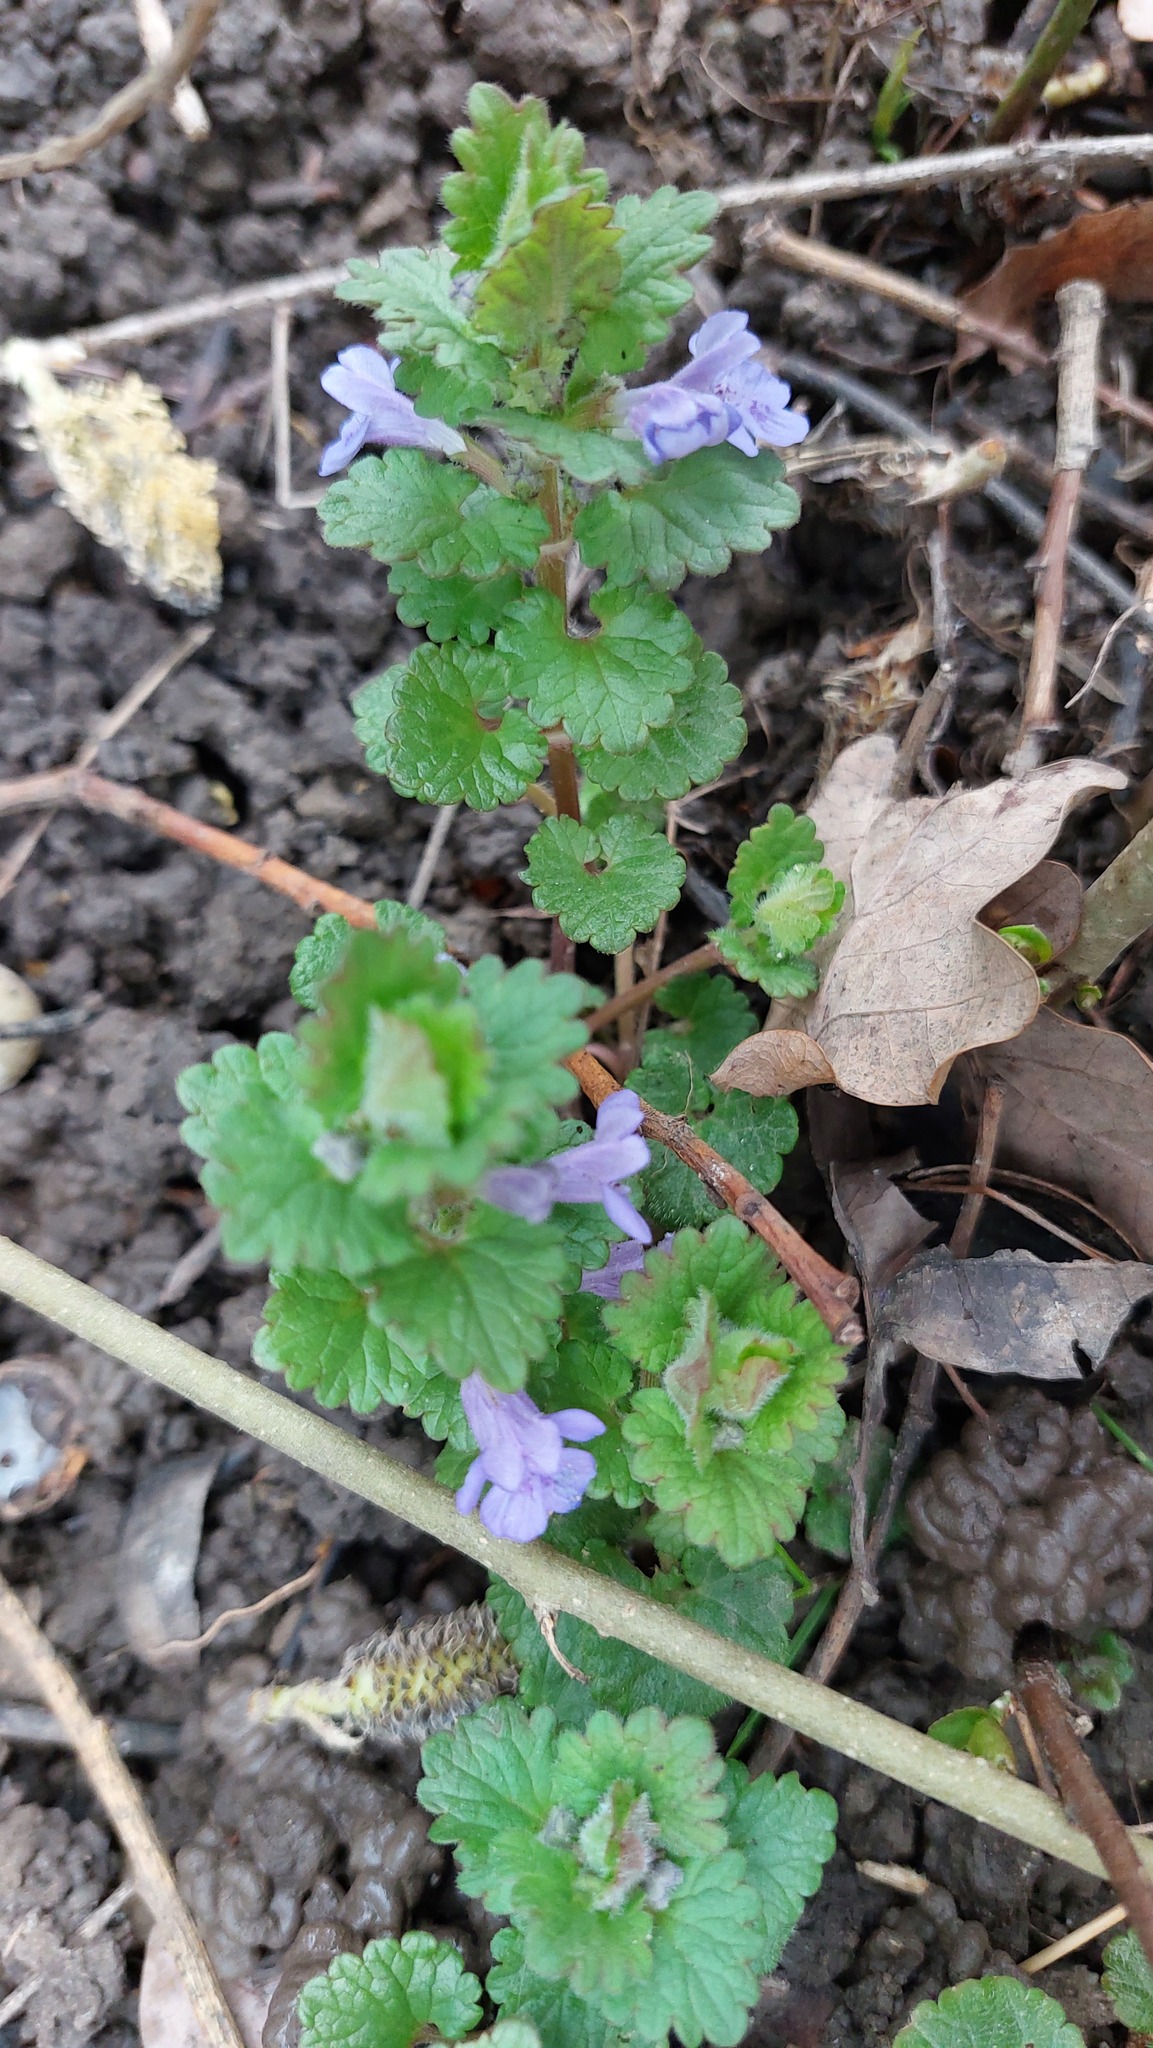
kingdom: Plantae
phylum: Tracheophyta
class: Magnoliopsida
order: Lamiales
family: Lamiaceae
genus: Glechoma
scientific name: Glechoma hederacea
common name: Ground ivy
